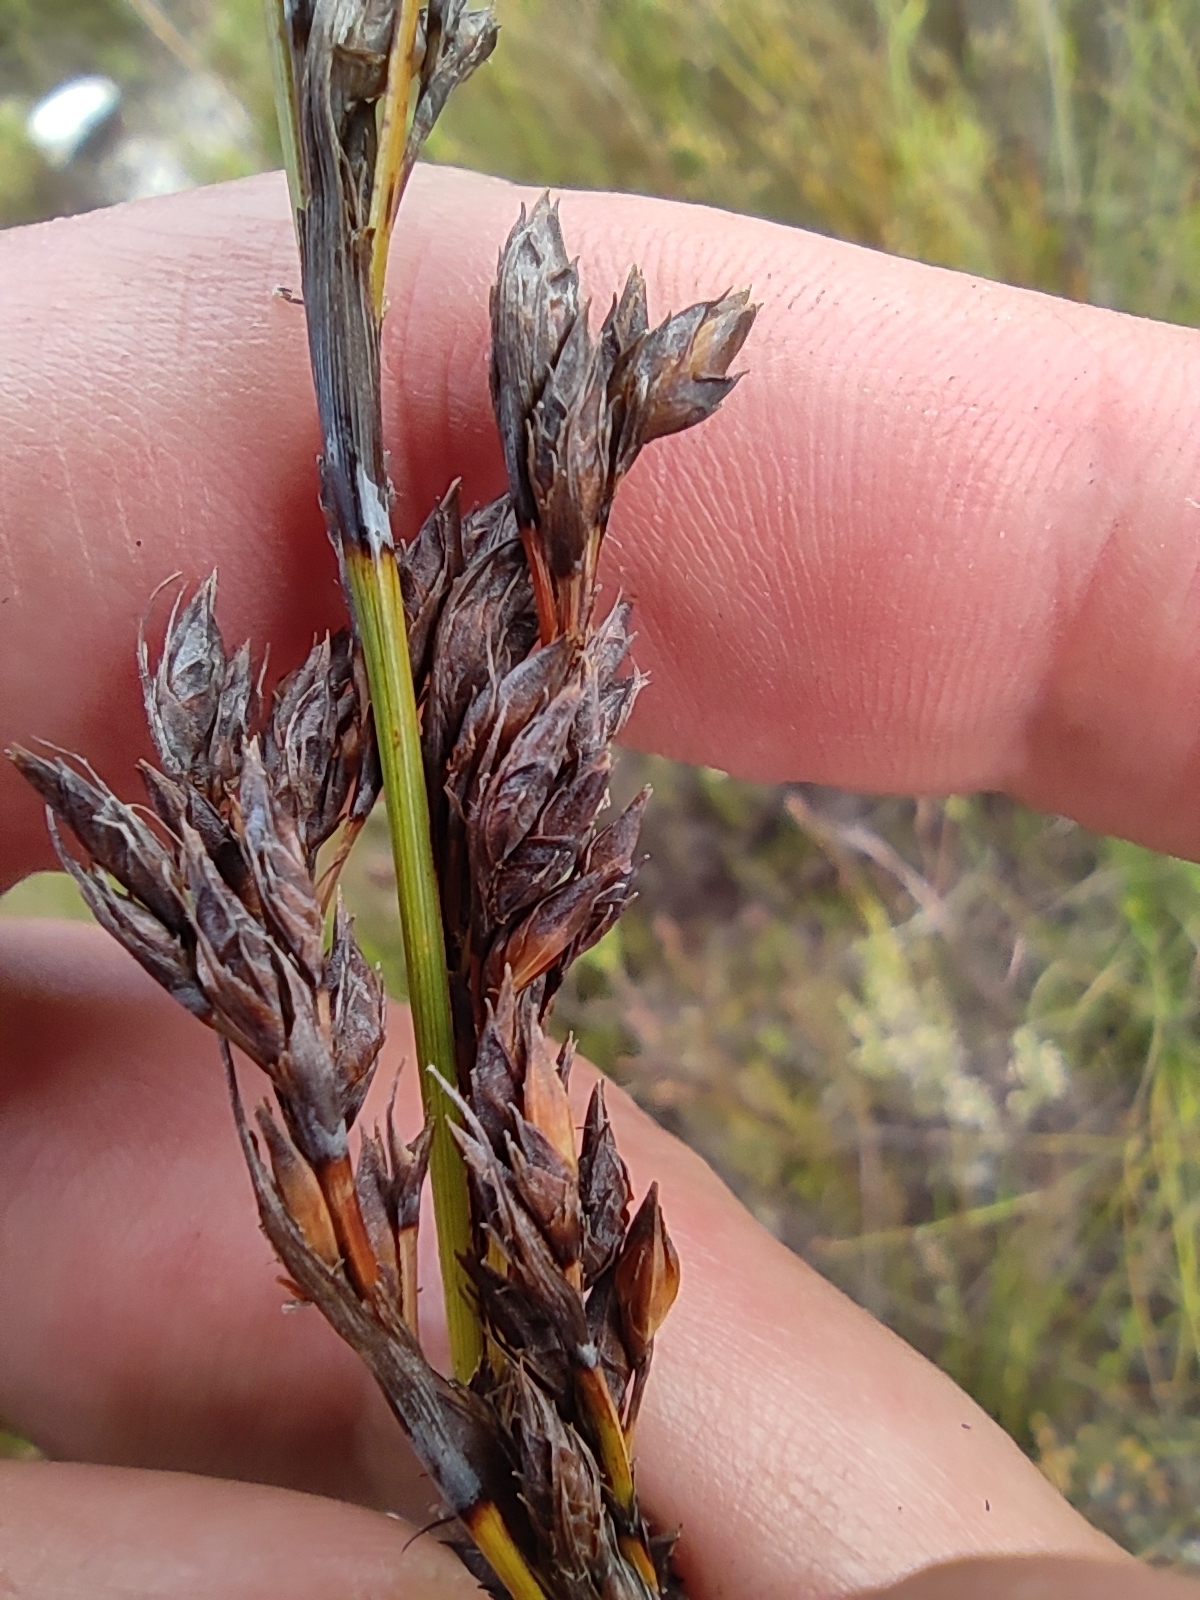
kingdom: Plantae
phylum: Tracheophyta
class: Liliopsida
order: Poales
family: Cyperaceae
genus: Tetraria
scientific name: Tetraria flexuosa
